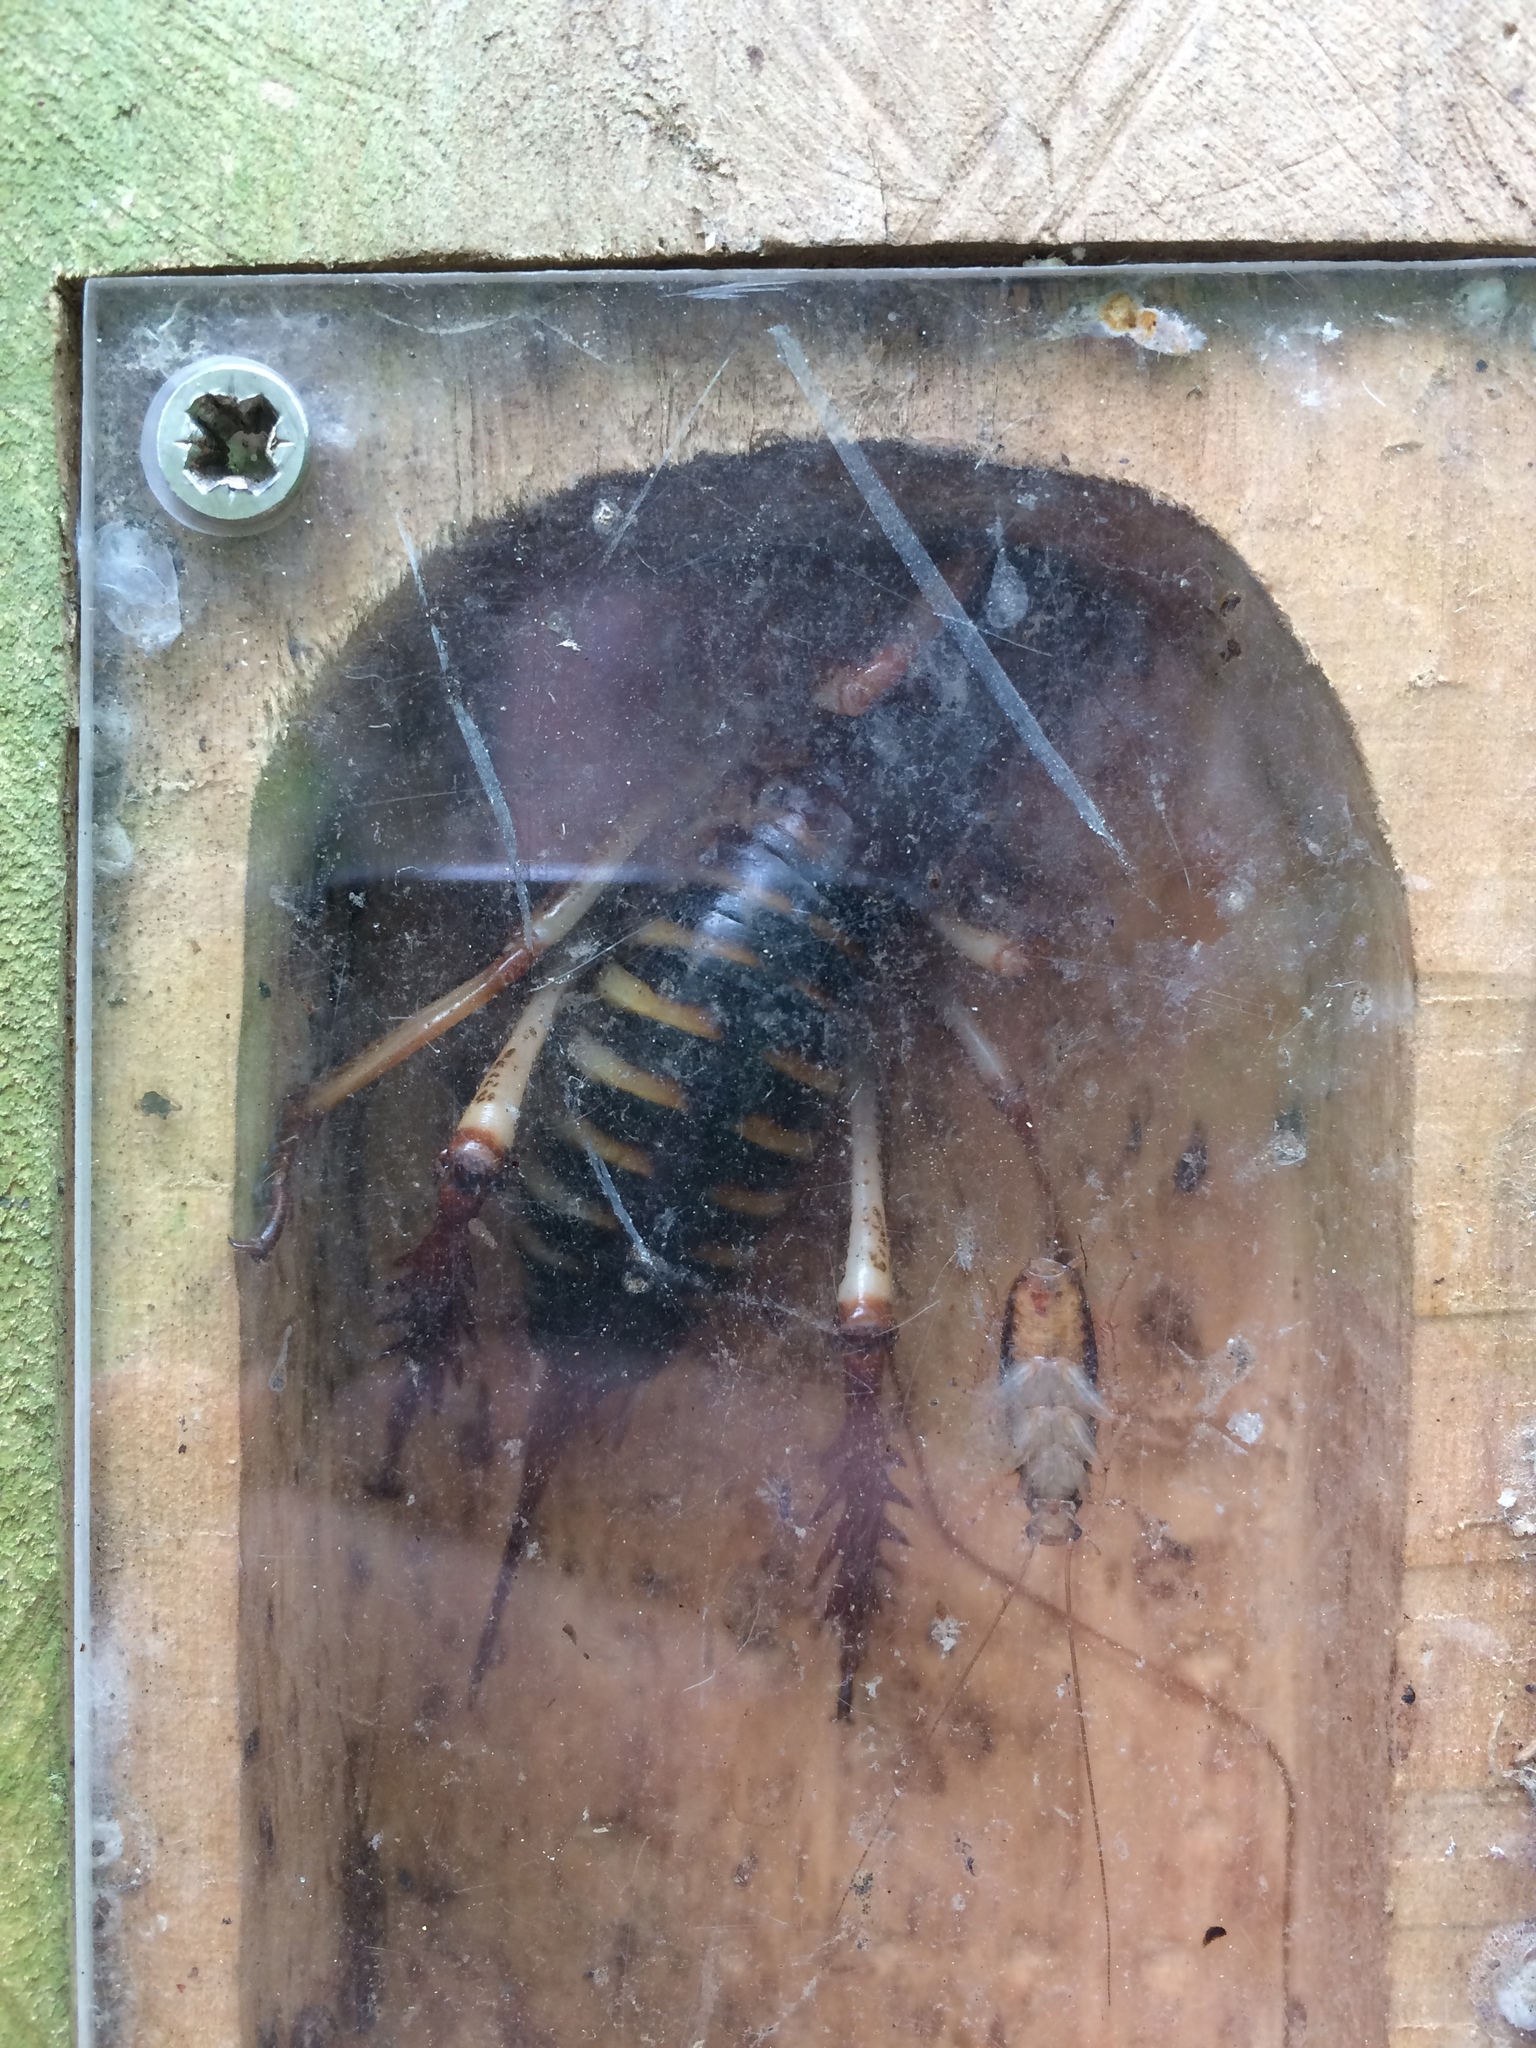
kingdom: Animalia
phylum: Arthropoda
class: Insecta
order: Orthoptera
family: Anostostomatidae
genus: Hemideina
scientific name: Hemideina crassidens
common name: Wellington tree weta
